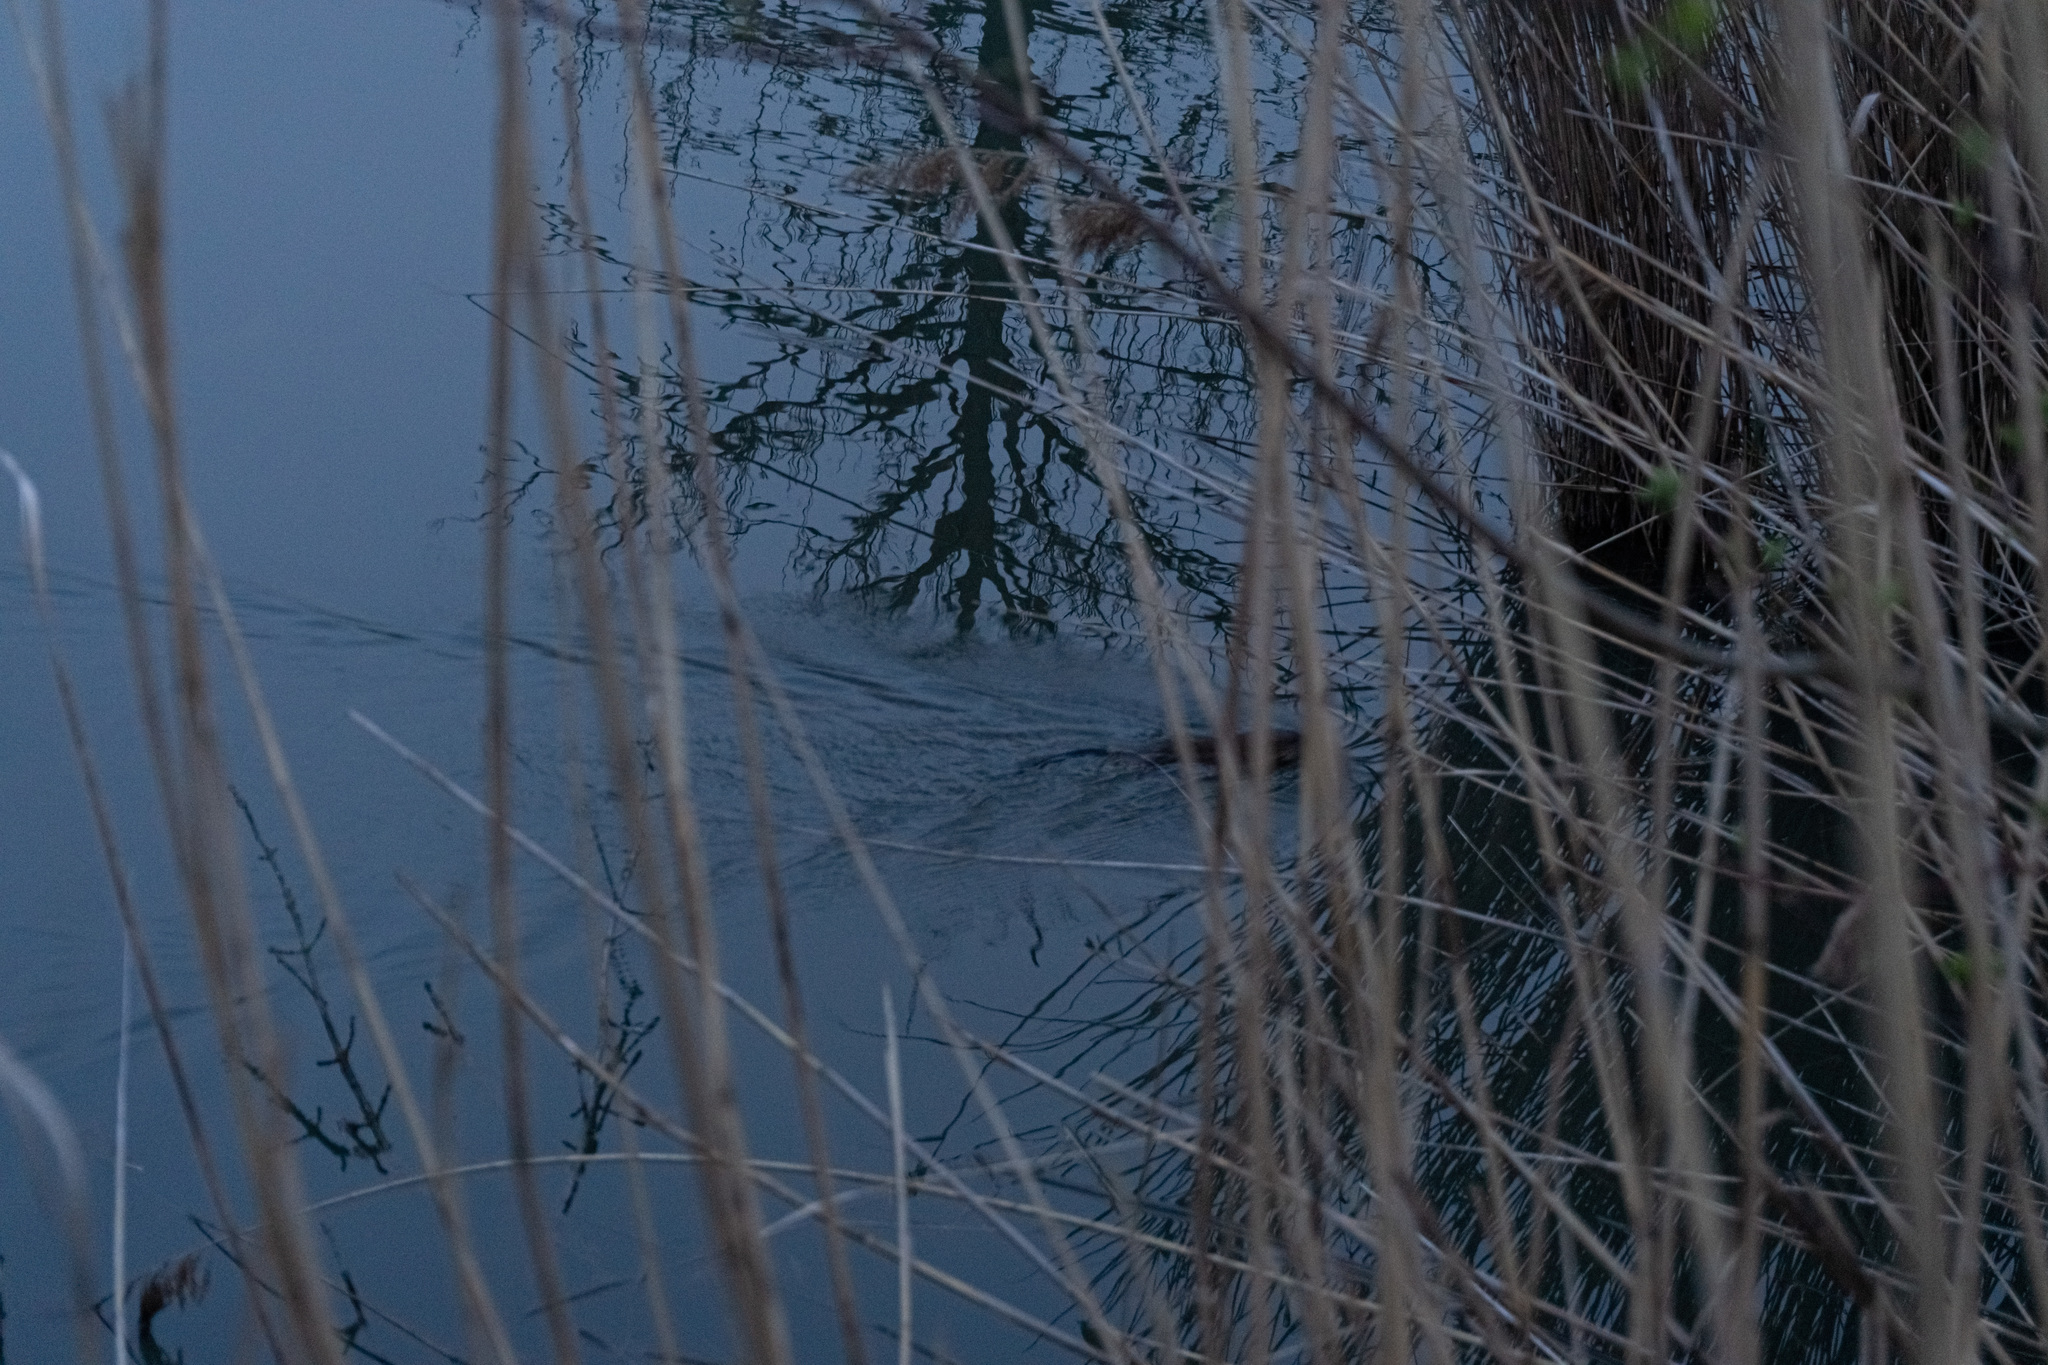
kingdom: Animalia
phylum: Chordata
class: Mammalia
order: Rodentia
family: Cricetidae
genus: Ondatra
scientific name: Ondatra zibethicus
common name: Muskrat
